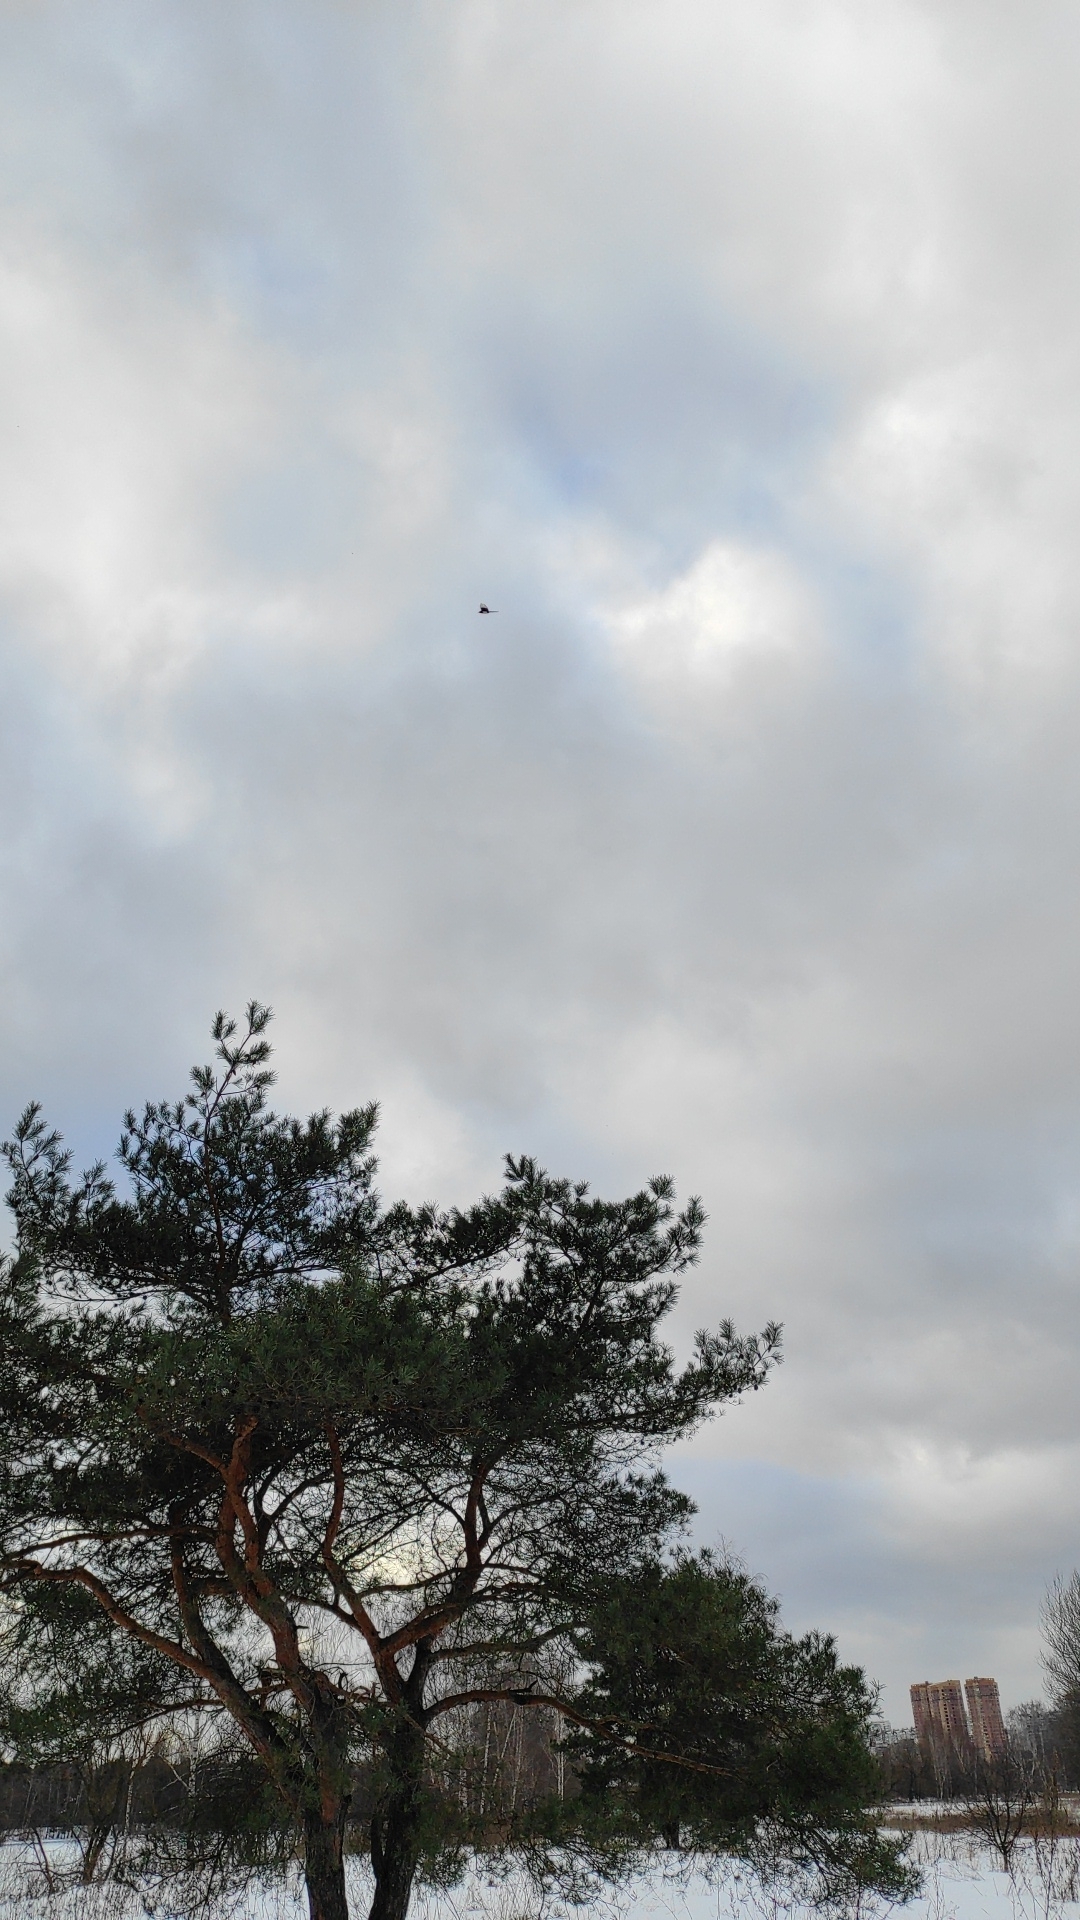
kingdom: Animalia
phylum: Chordata
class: Aves
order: Passeriformes
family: Corvidae
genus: Pica
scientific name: Pica pica
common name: Eurasian magpie
